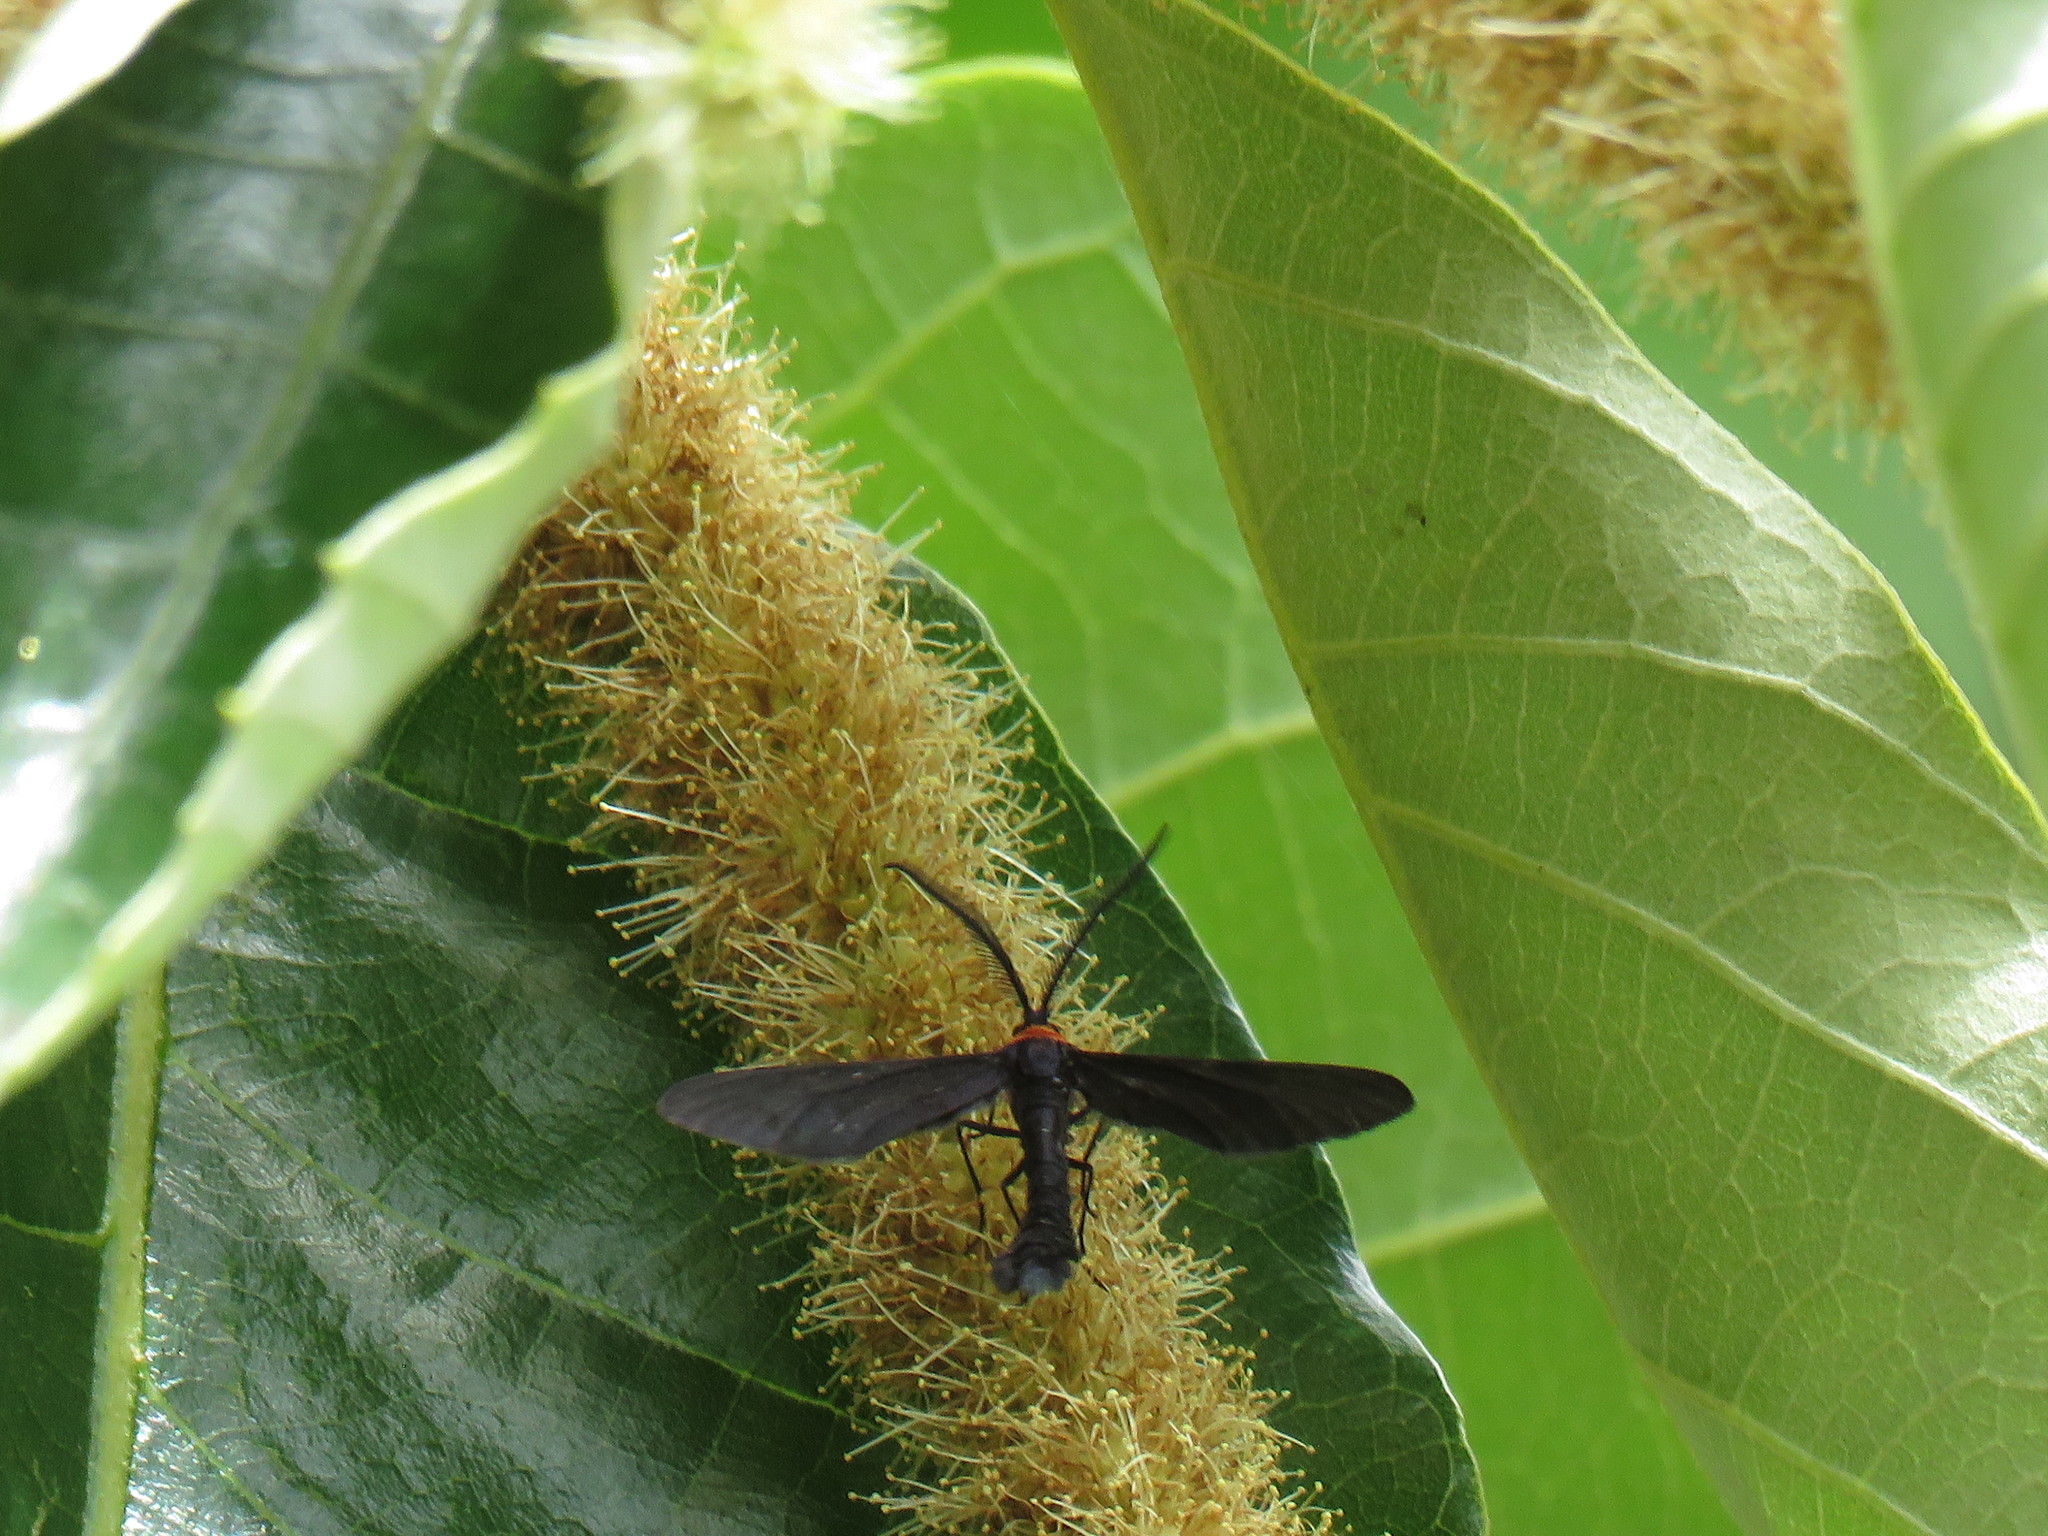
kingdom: Animalia
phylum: Arthropoda
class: Insecta
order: Lepidoptera
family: Zygaenidae
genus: Harrisina
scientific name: Harrisina americana
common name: Grapeleaf skeletonizer moth
